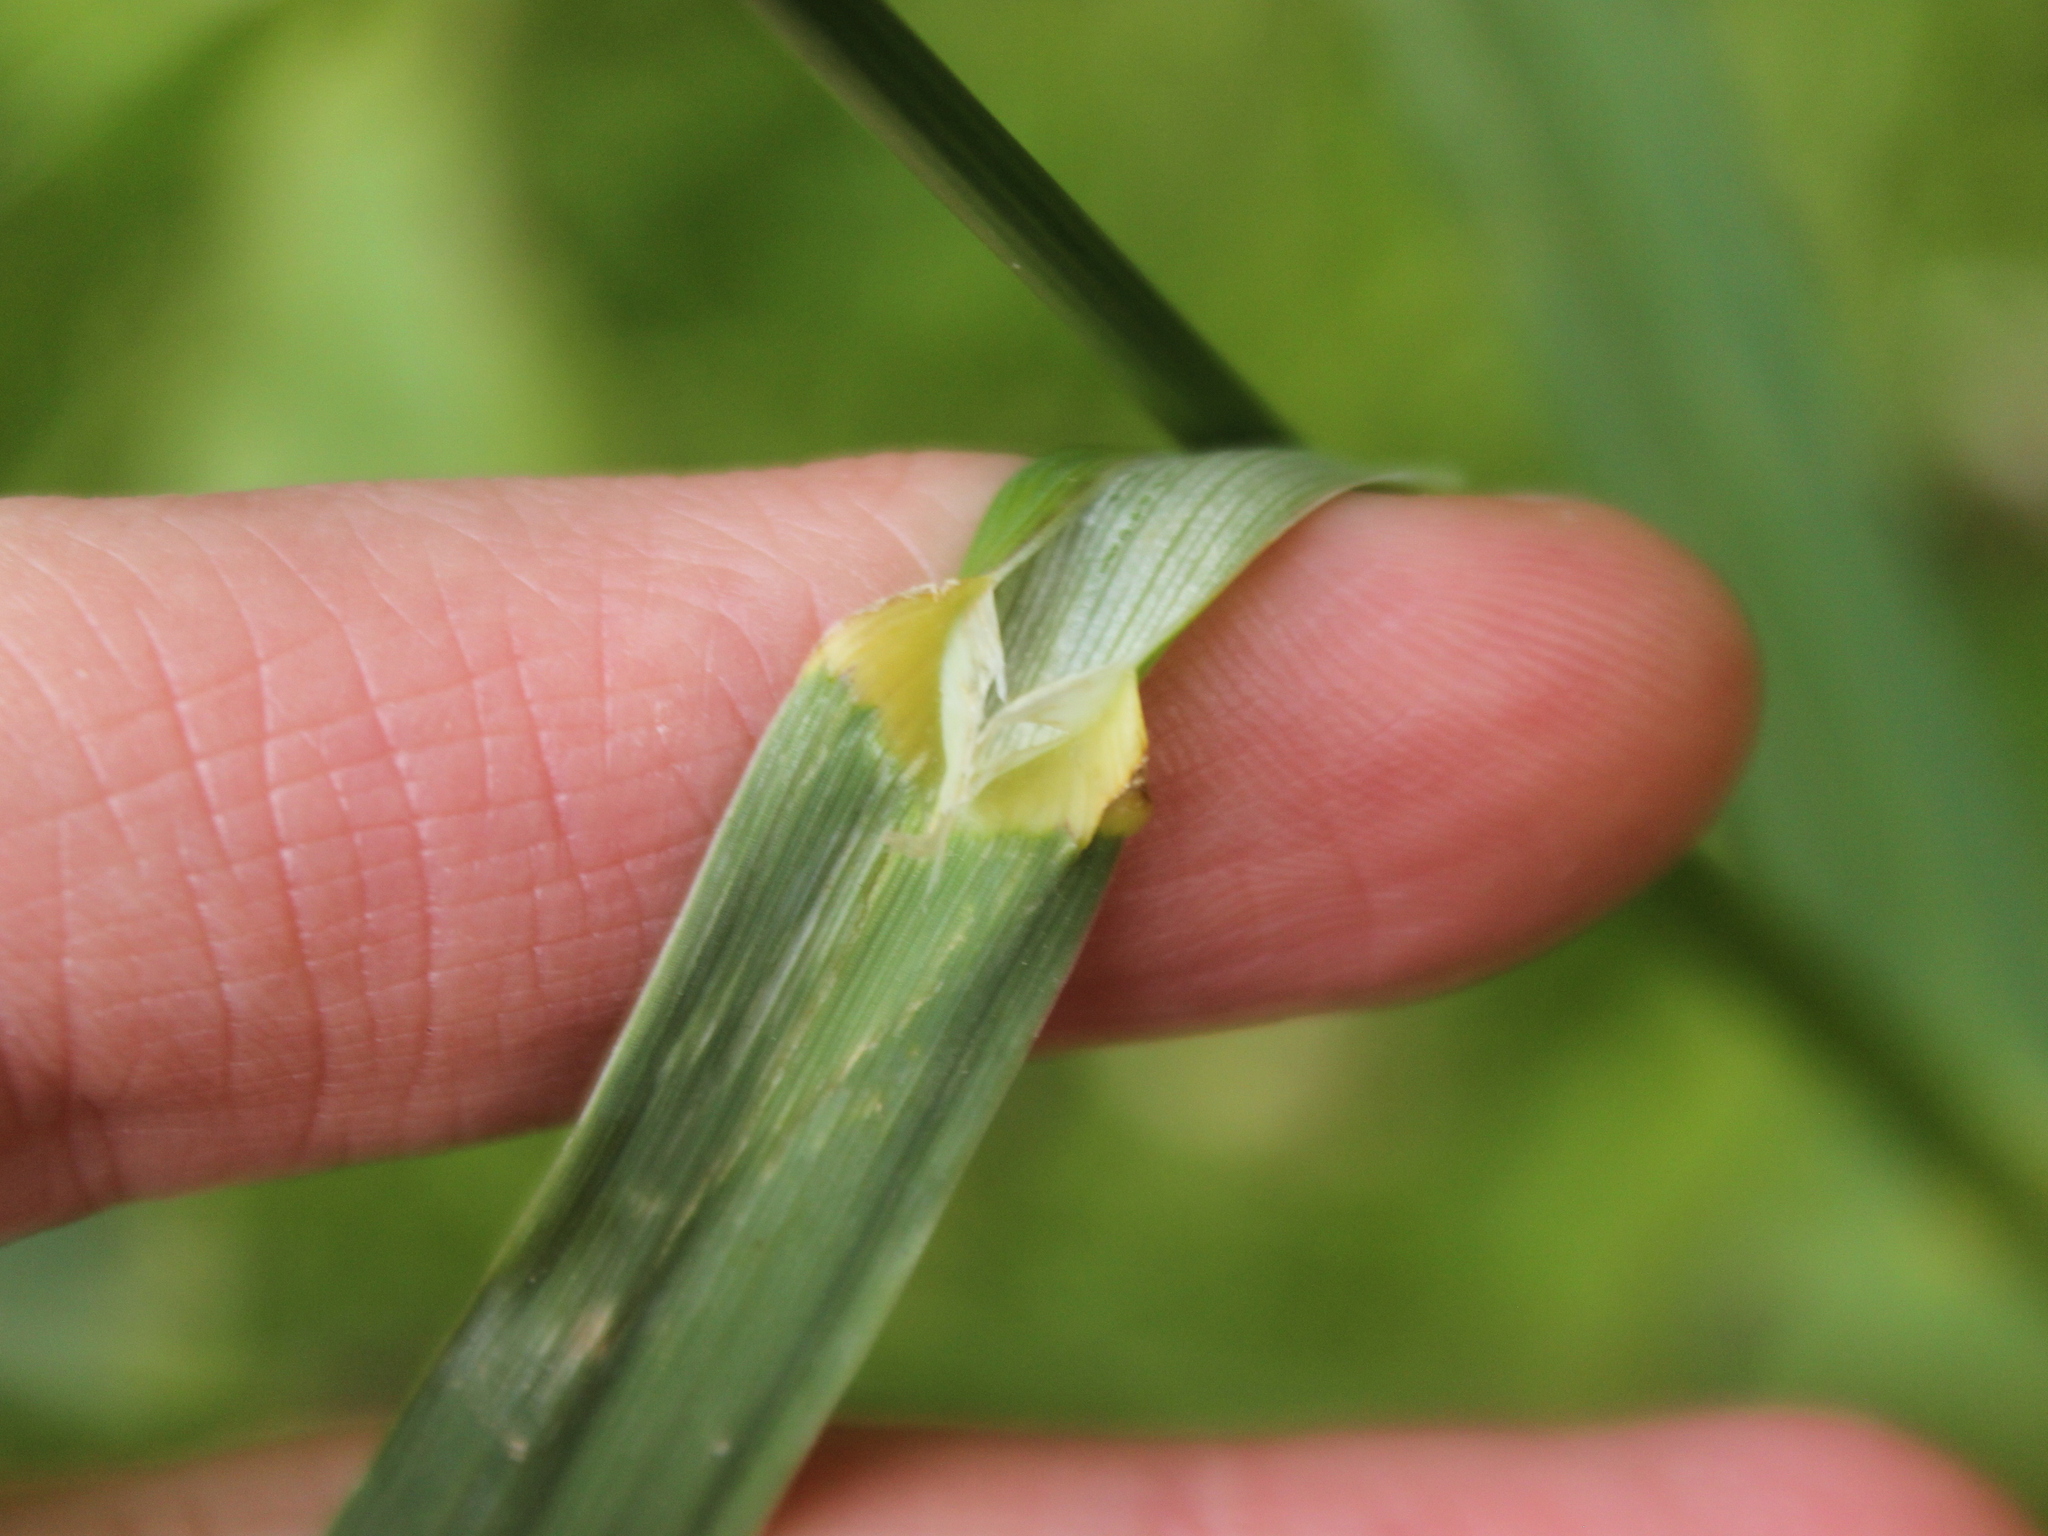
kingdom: Plantae
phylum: Tracheophyta
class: Liliopsida
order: Poales
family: Poaceae
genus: Bromus
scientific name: Bromus catharticus
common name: Rescuegrass
